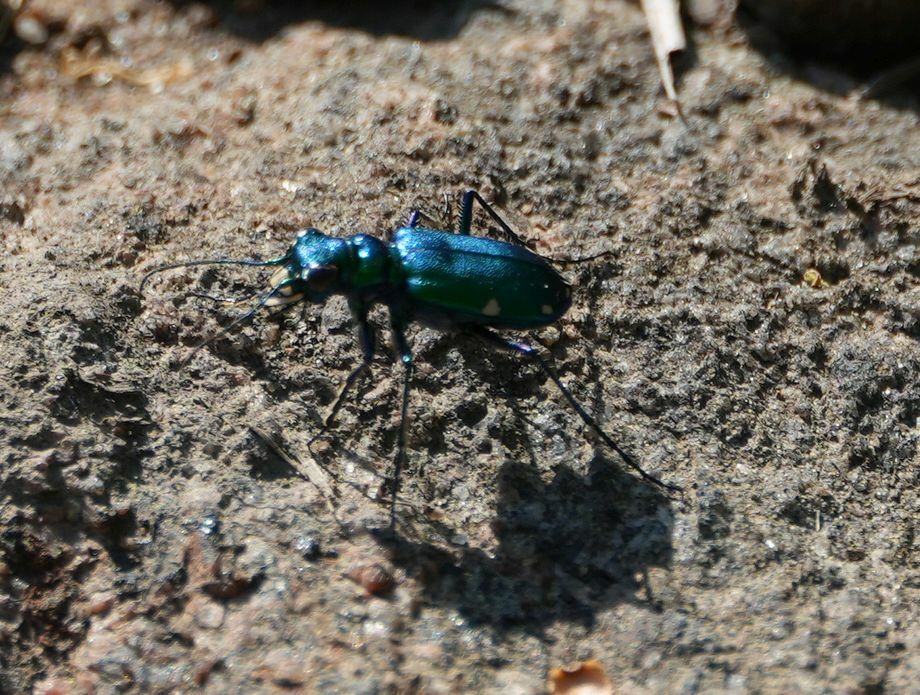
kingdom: Animalia
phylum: Arthropoda
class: Insecta
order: Coleoptera
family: Carabidae
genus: Cicindela
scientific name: Cicindela sexguttata
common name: Six-spotted tiger beetle
